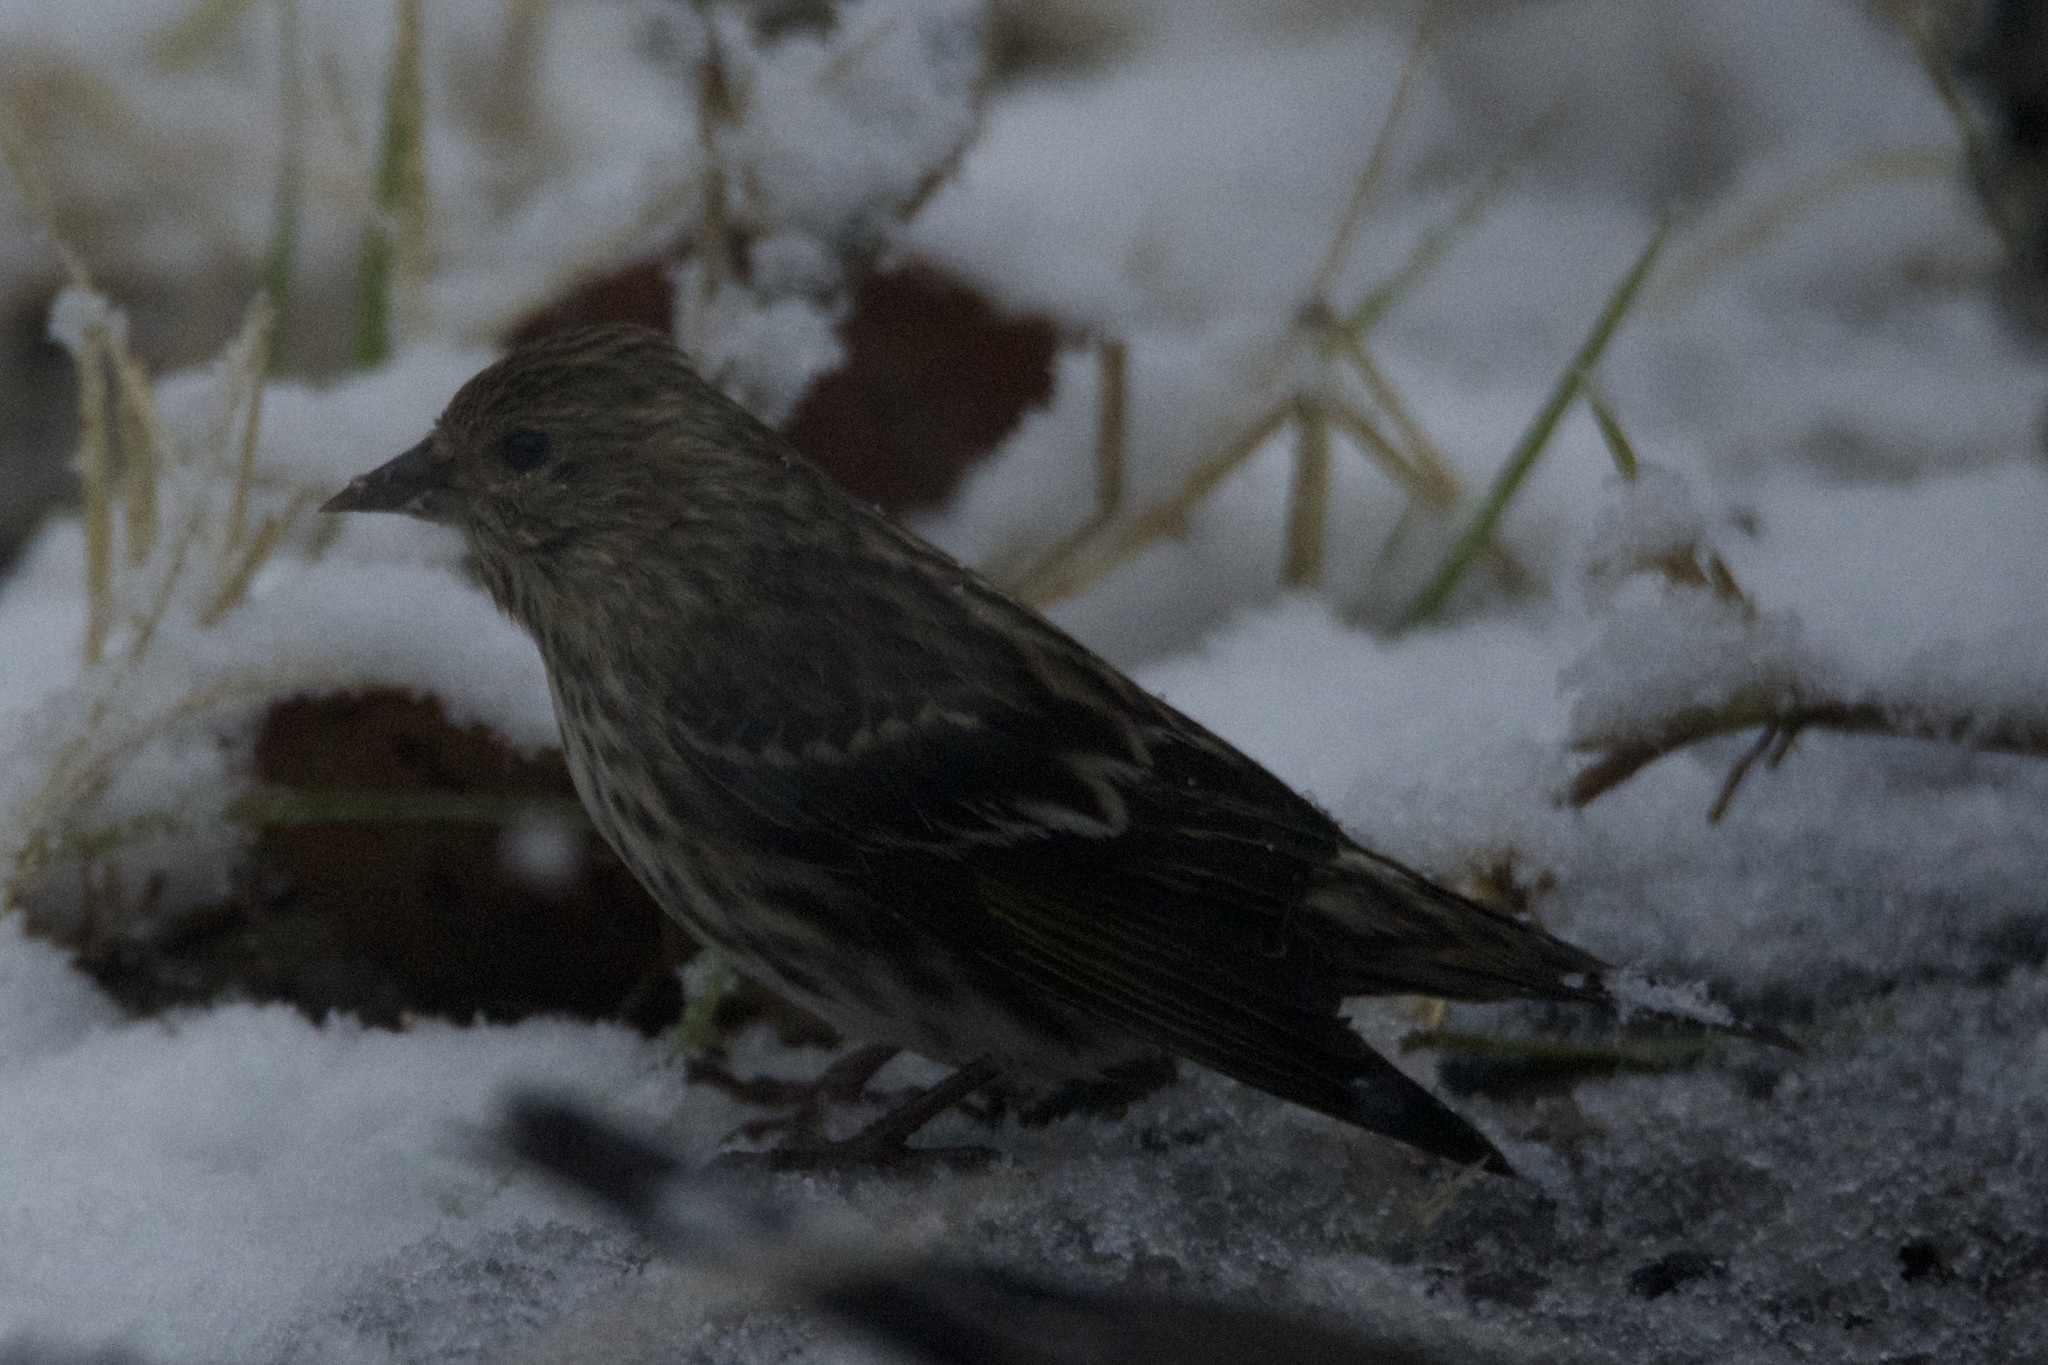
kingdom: Animalia
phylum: Chordata
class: Aves
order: Passeriformes
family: Fringillidae
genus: Spinus
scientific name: Spinus pinus
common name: Pine siskin
